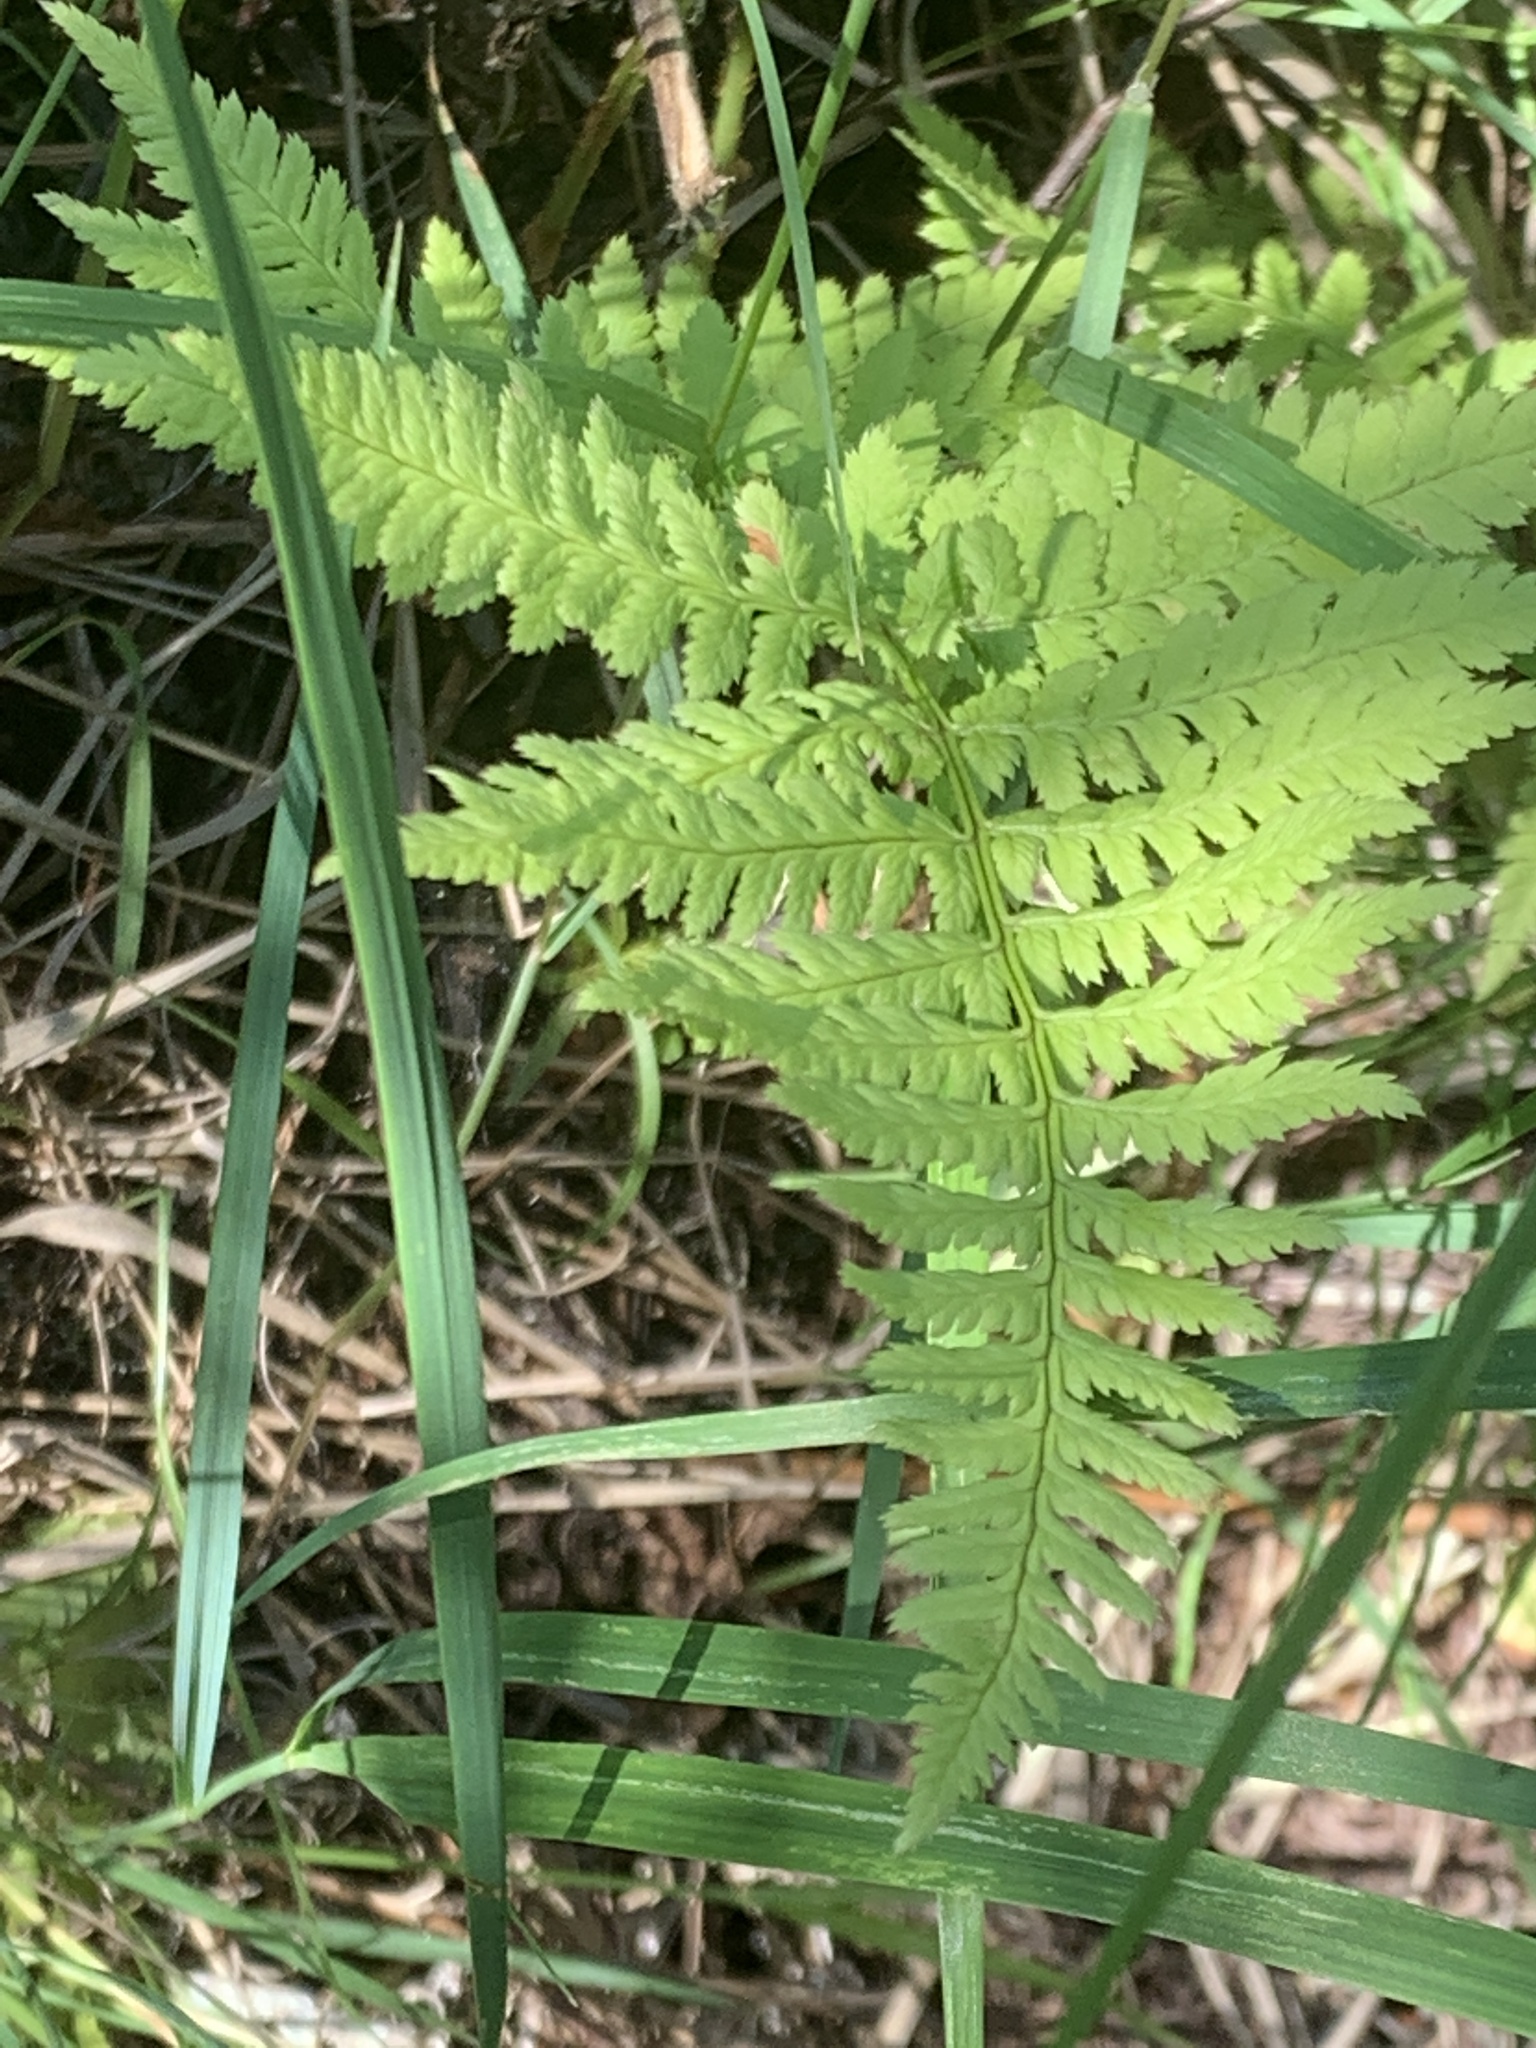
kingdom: Plantae
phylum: Tracheophyta
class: Polypodiopsida
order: Polypodiales
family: Dryopteridaceae
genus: Dryopteris
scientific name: Dryopteris carthusiana
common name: Narrow buckler-fern
